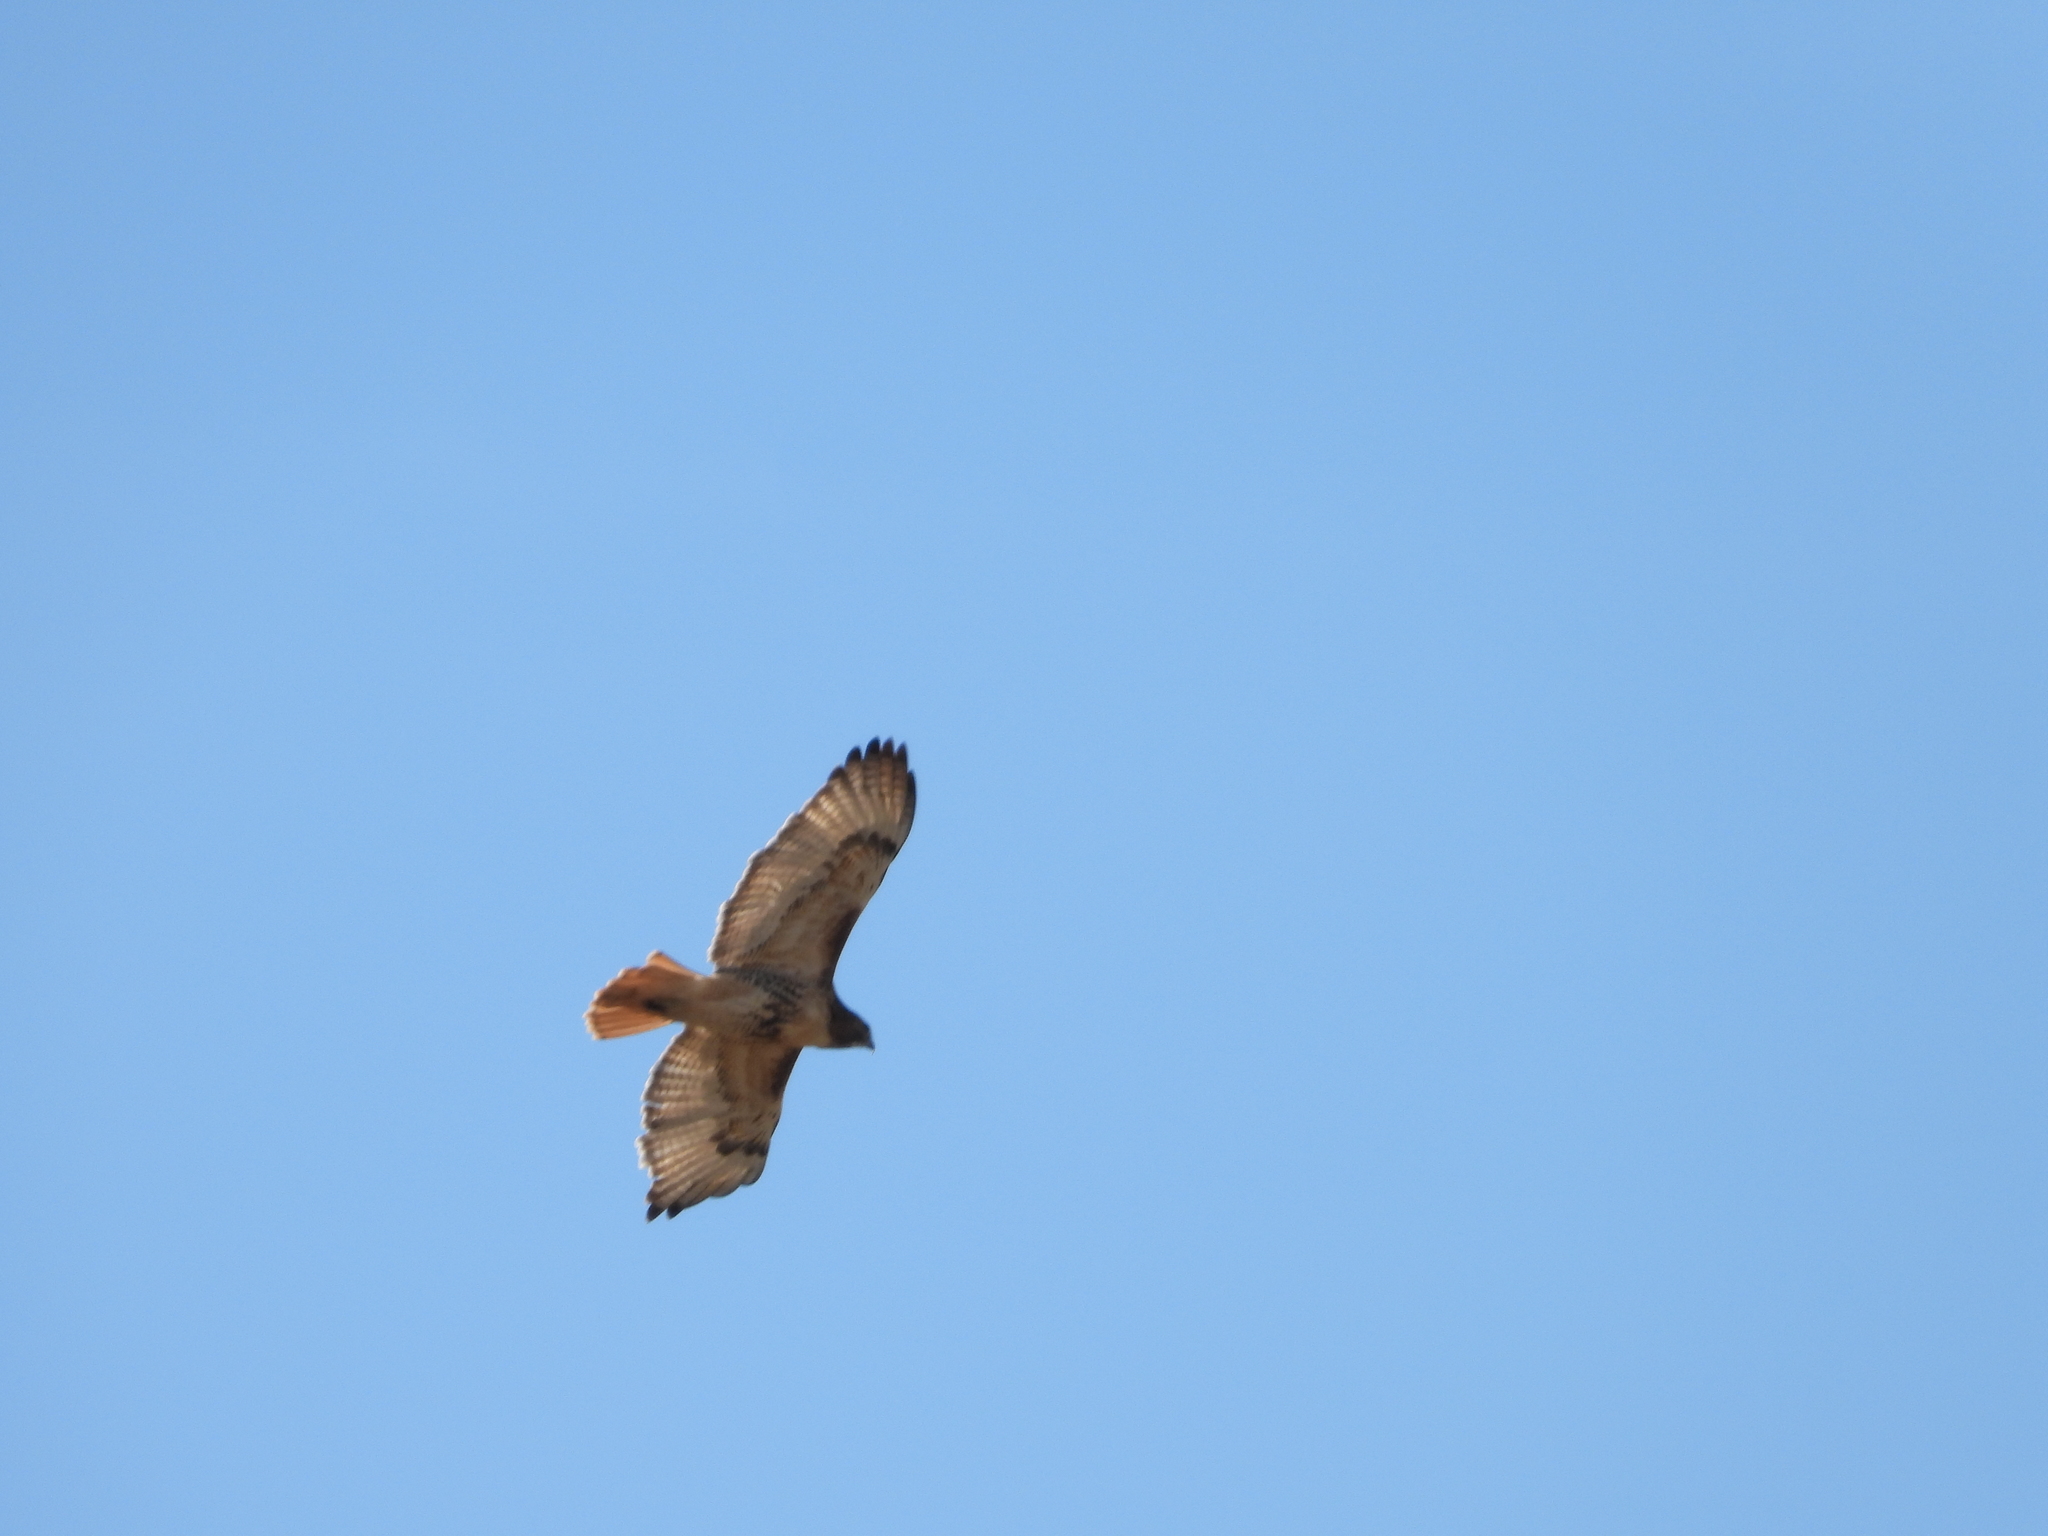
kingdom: Animalia
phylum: Chordata
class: Aves
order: Accipitriformes
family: Accipitridae
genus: Buteo
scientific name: Buteo jamaicensis
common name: Red-tailed hawk
